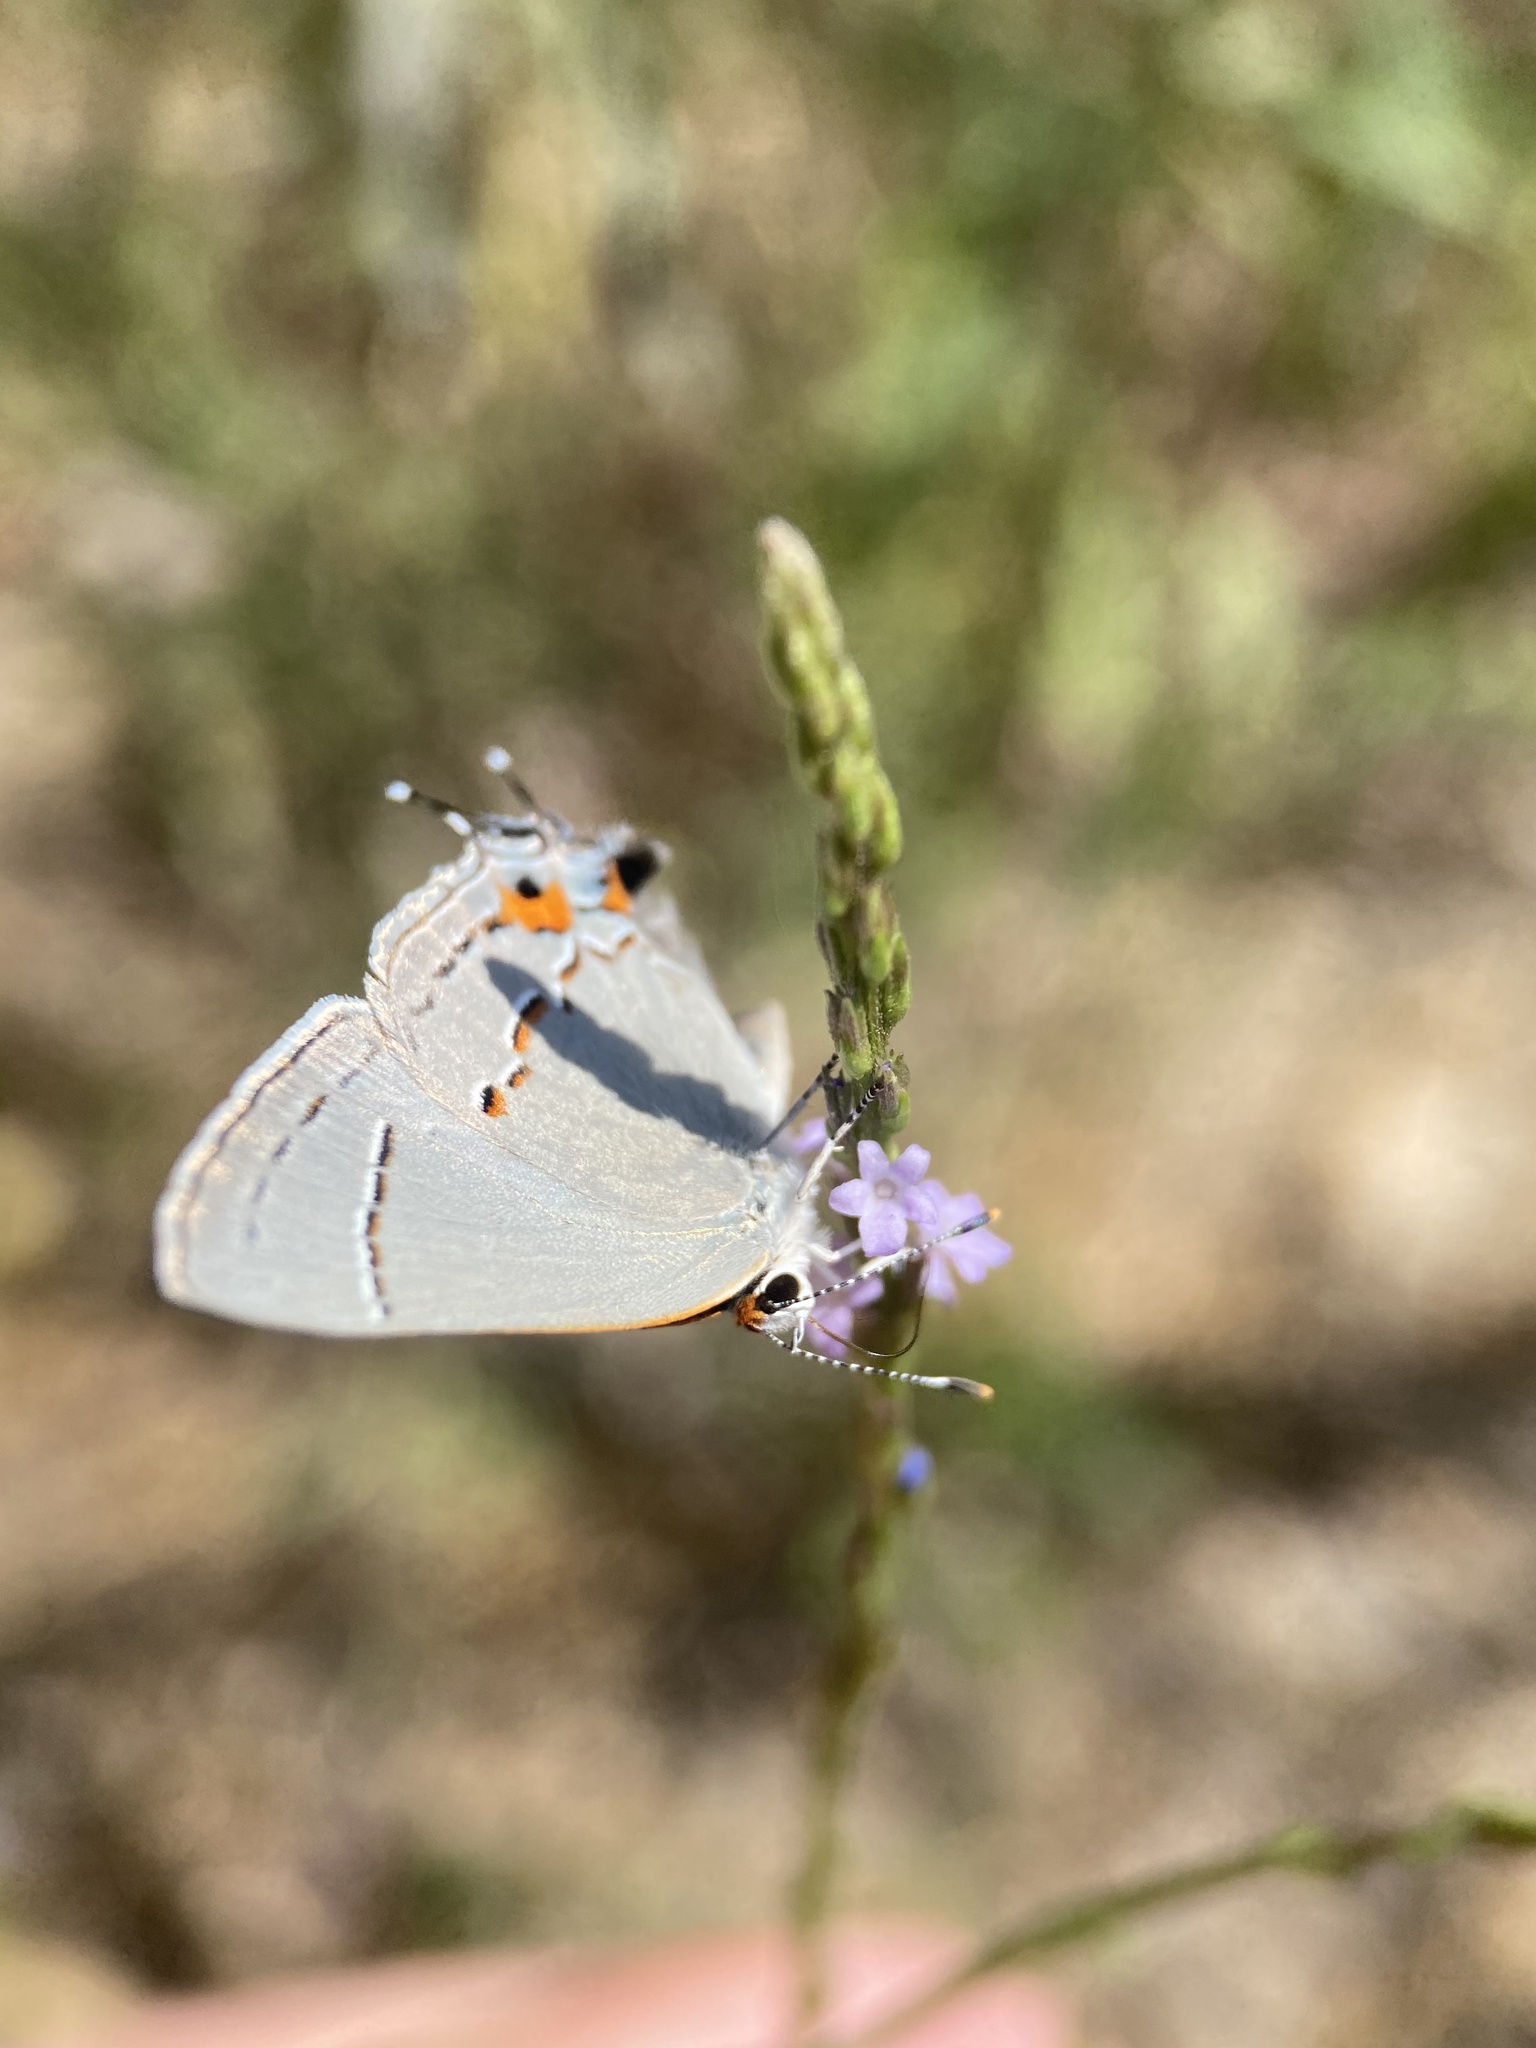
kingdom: Animalia
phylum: Arthropoda
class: Insecta
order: Lepidoptera
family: Lycaenidae
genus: Strymon
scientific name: Strymon melinus
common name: Gray hairstreak
